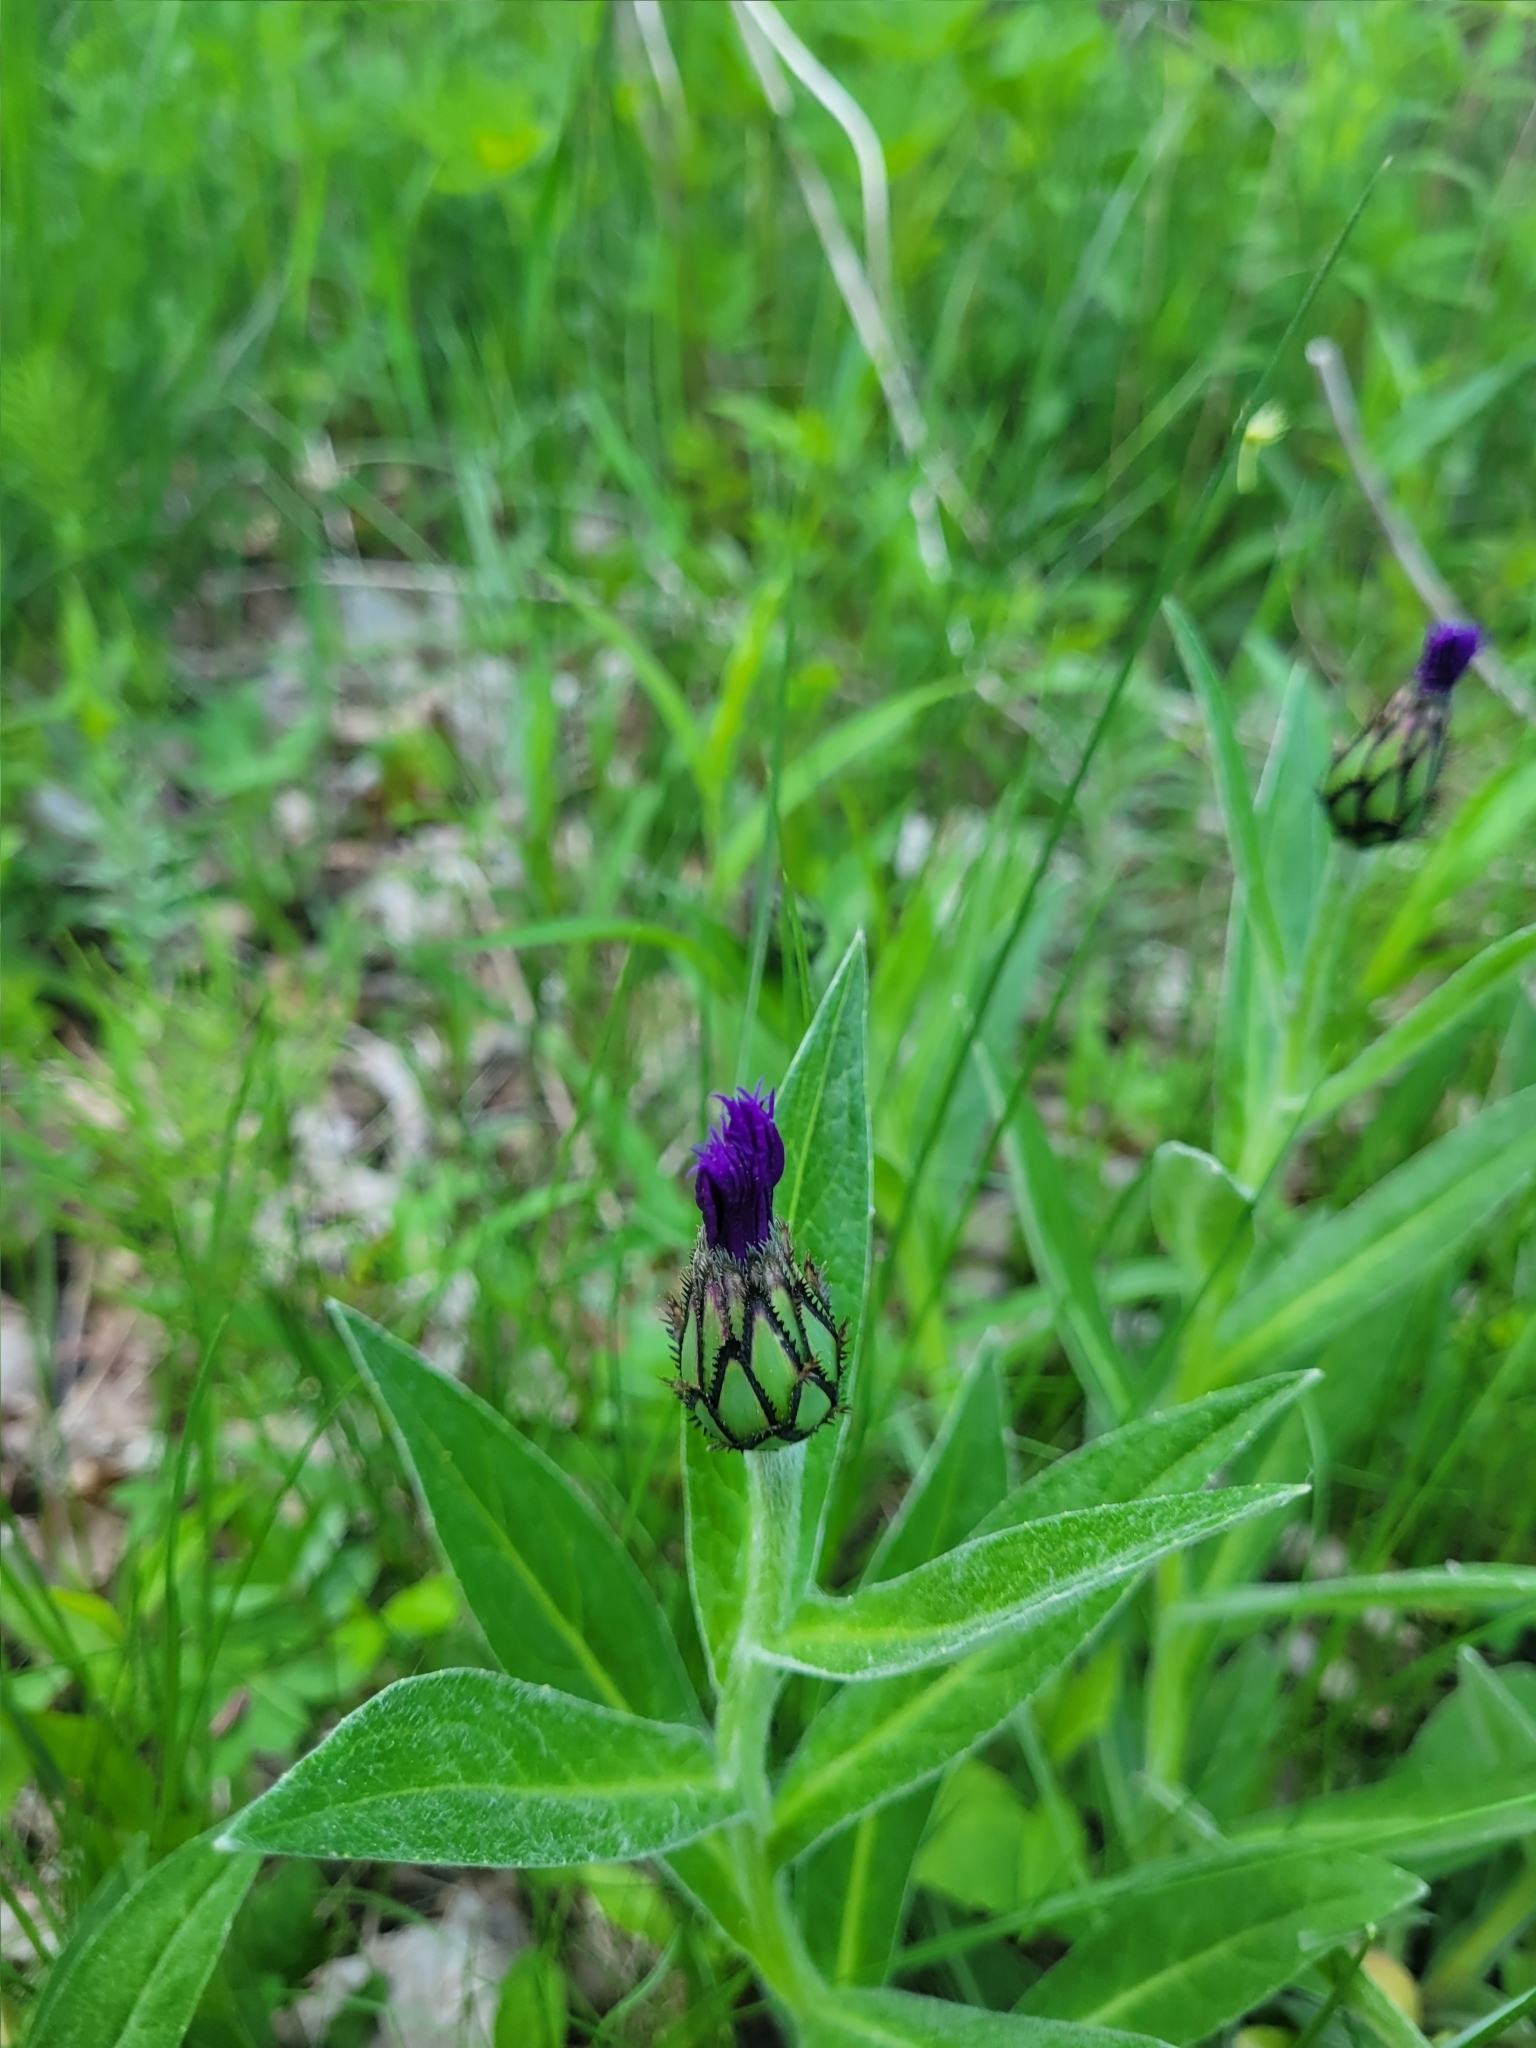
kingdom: Plantae
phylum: Tracheophyta
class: Magnoliopsida
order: Asterales
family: Asteraceae
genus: Centaurea
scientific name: Centaurea montana
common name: Perennial cornflower
